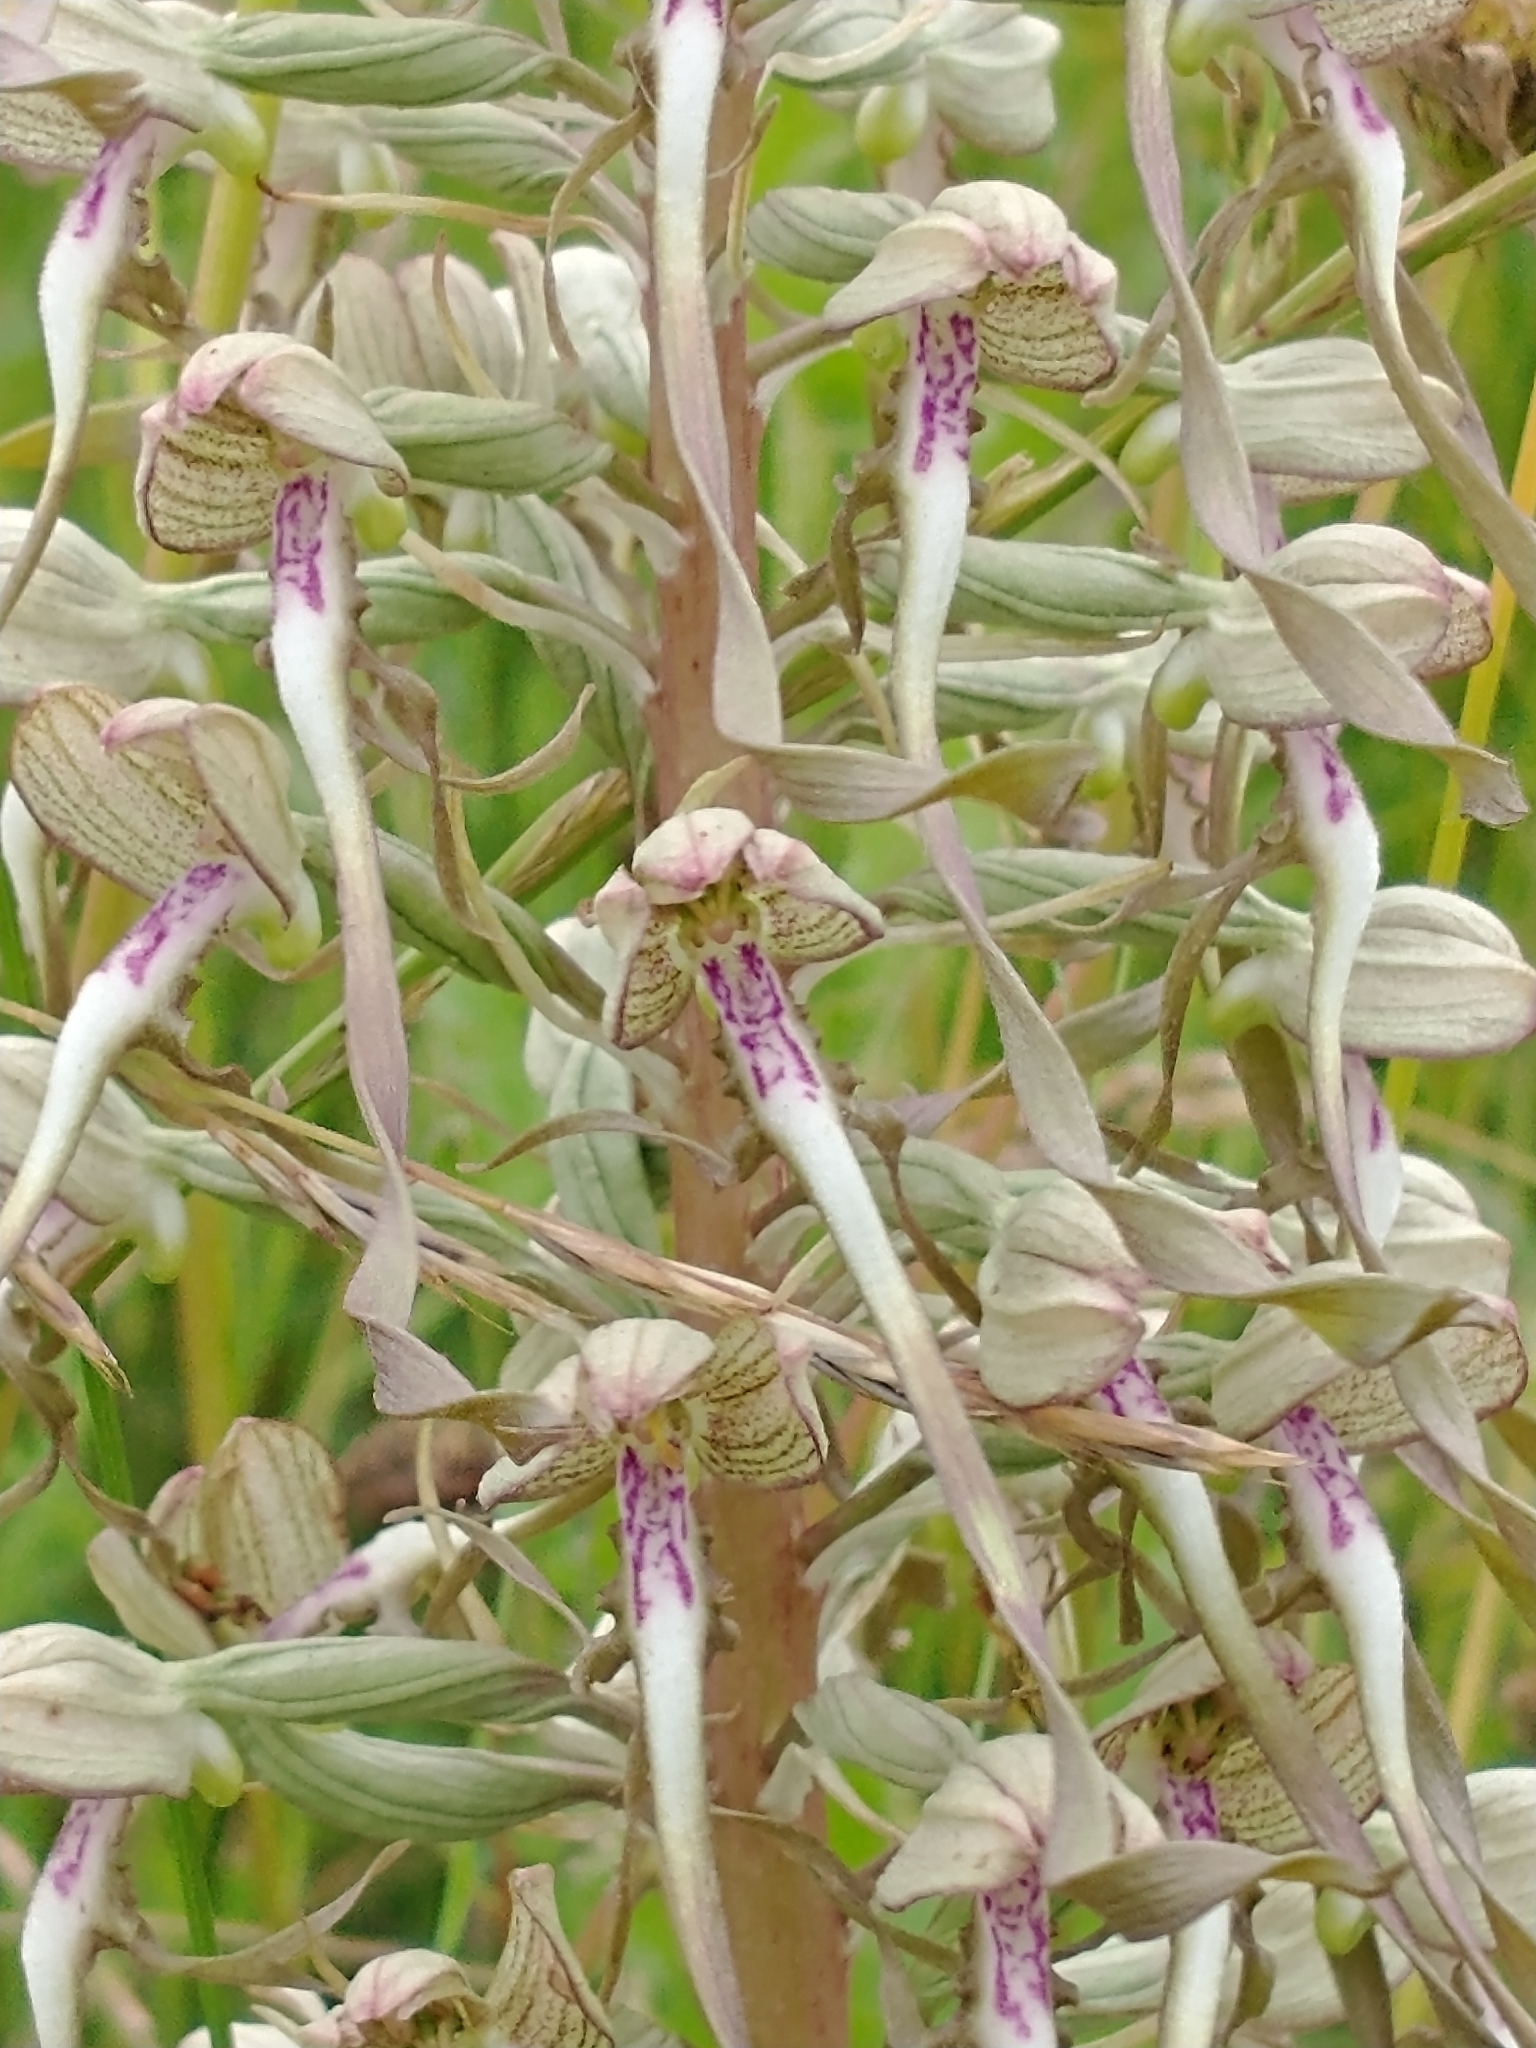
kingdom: Plantae
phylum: Tracheophyta
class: Liliopsida
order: Asparagales
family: Orchidaceae
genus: Himantoglossum
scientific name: Himantoglossum hircinum
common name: Lizard orchid
